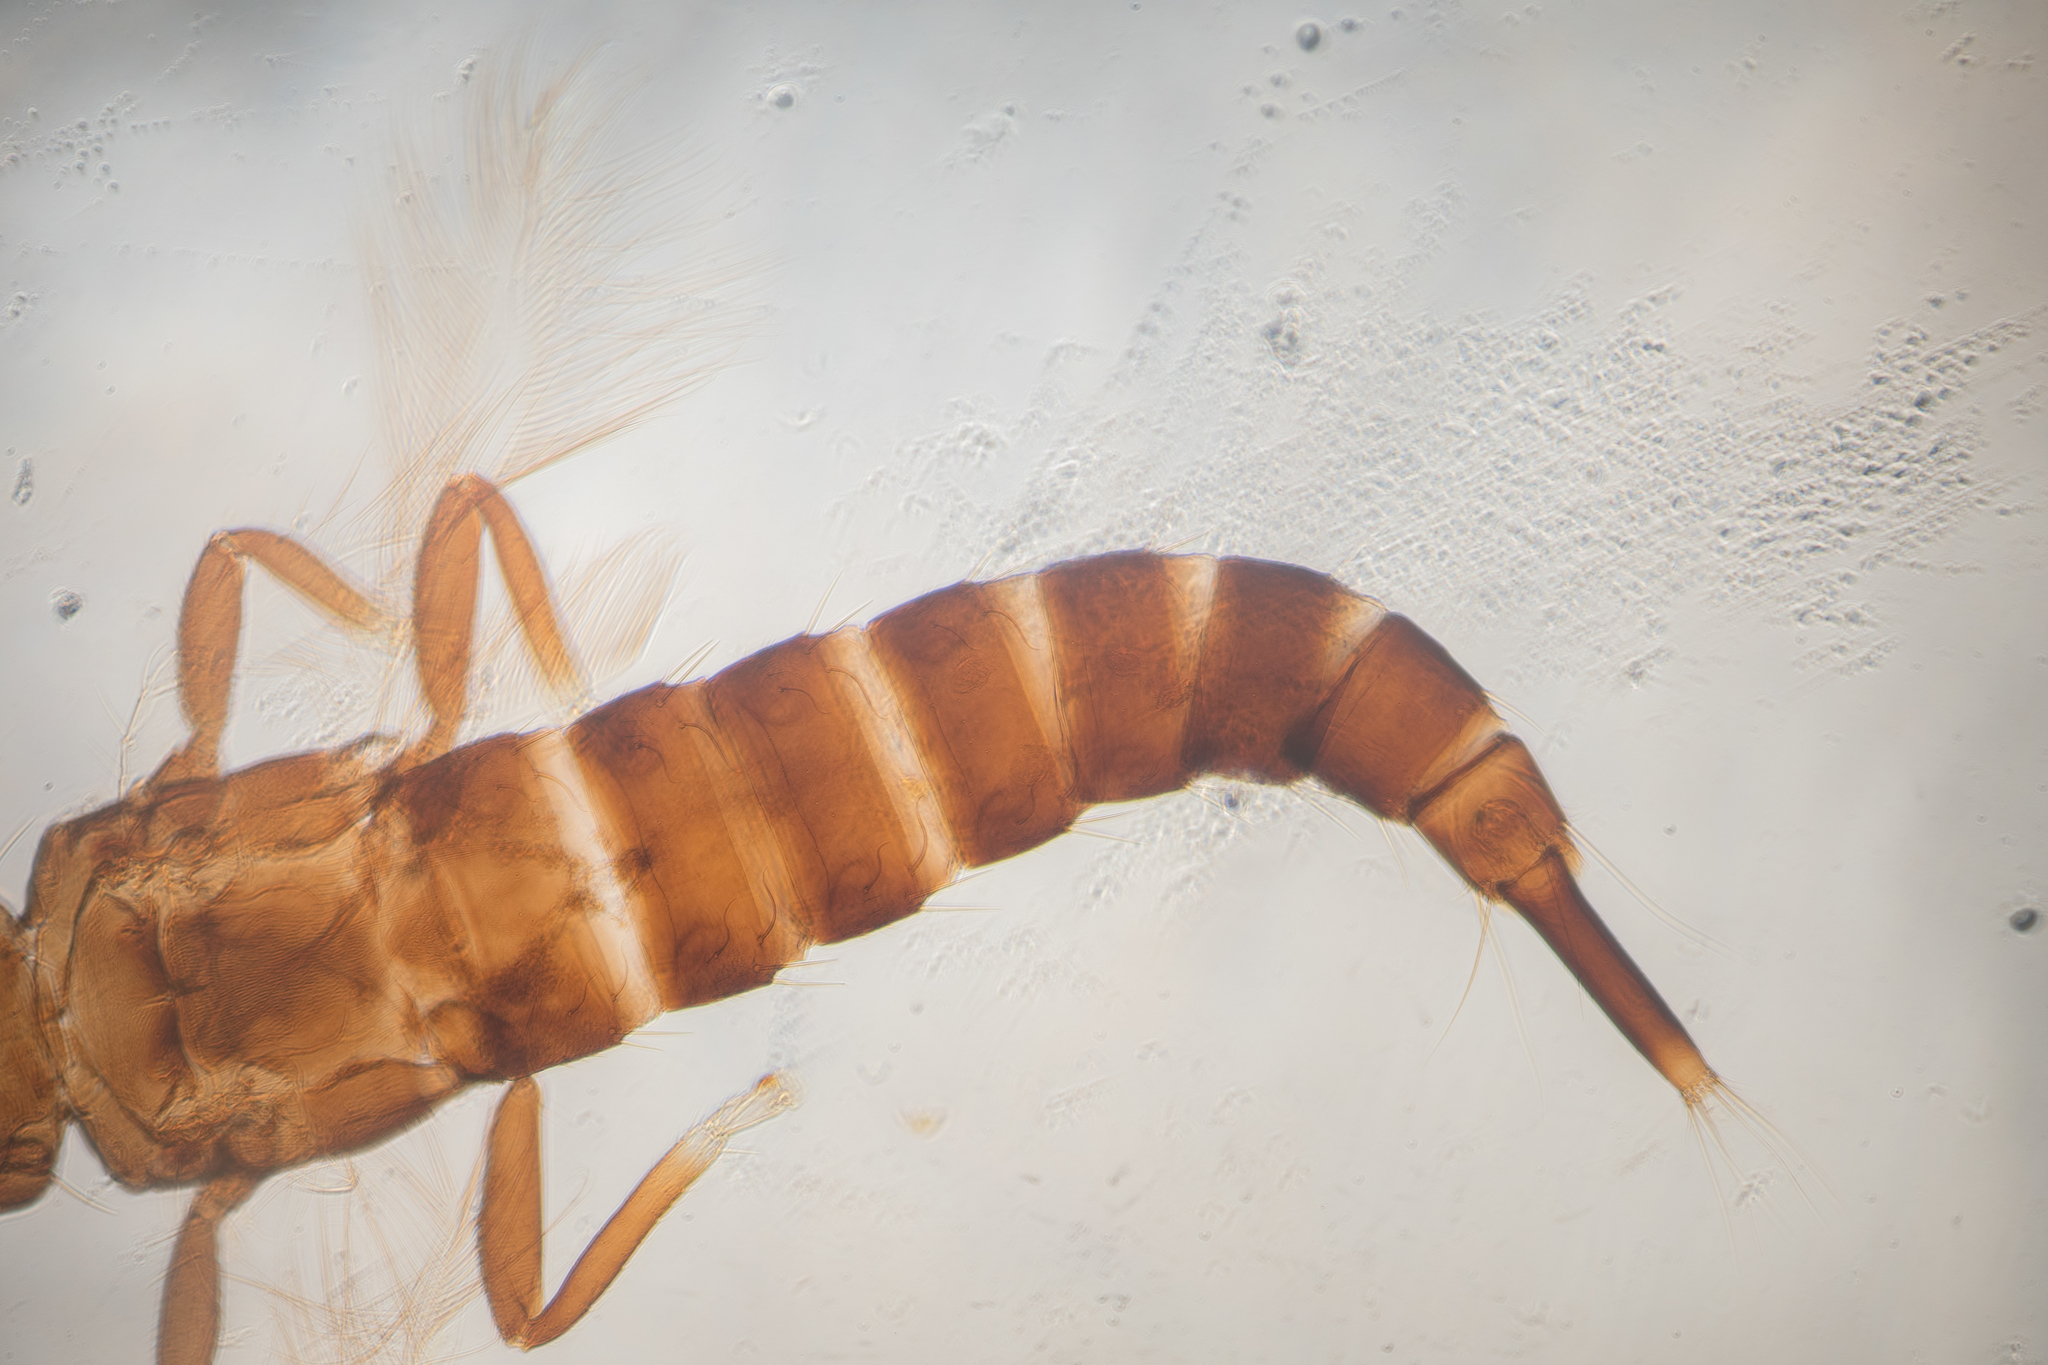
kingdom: Animalia
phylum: Arthropoda
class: Insecta
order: Thysanoptera
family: Phlaeothripidae
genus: Gynaikothrips
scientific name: Gynaikothrips uzeli
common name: Leaf-gall thrips
